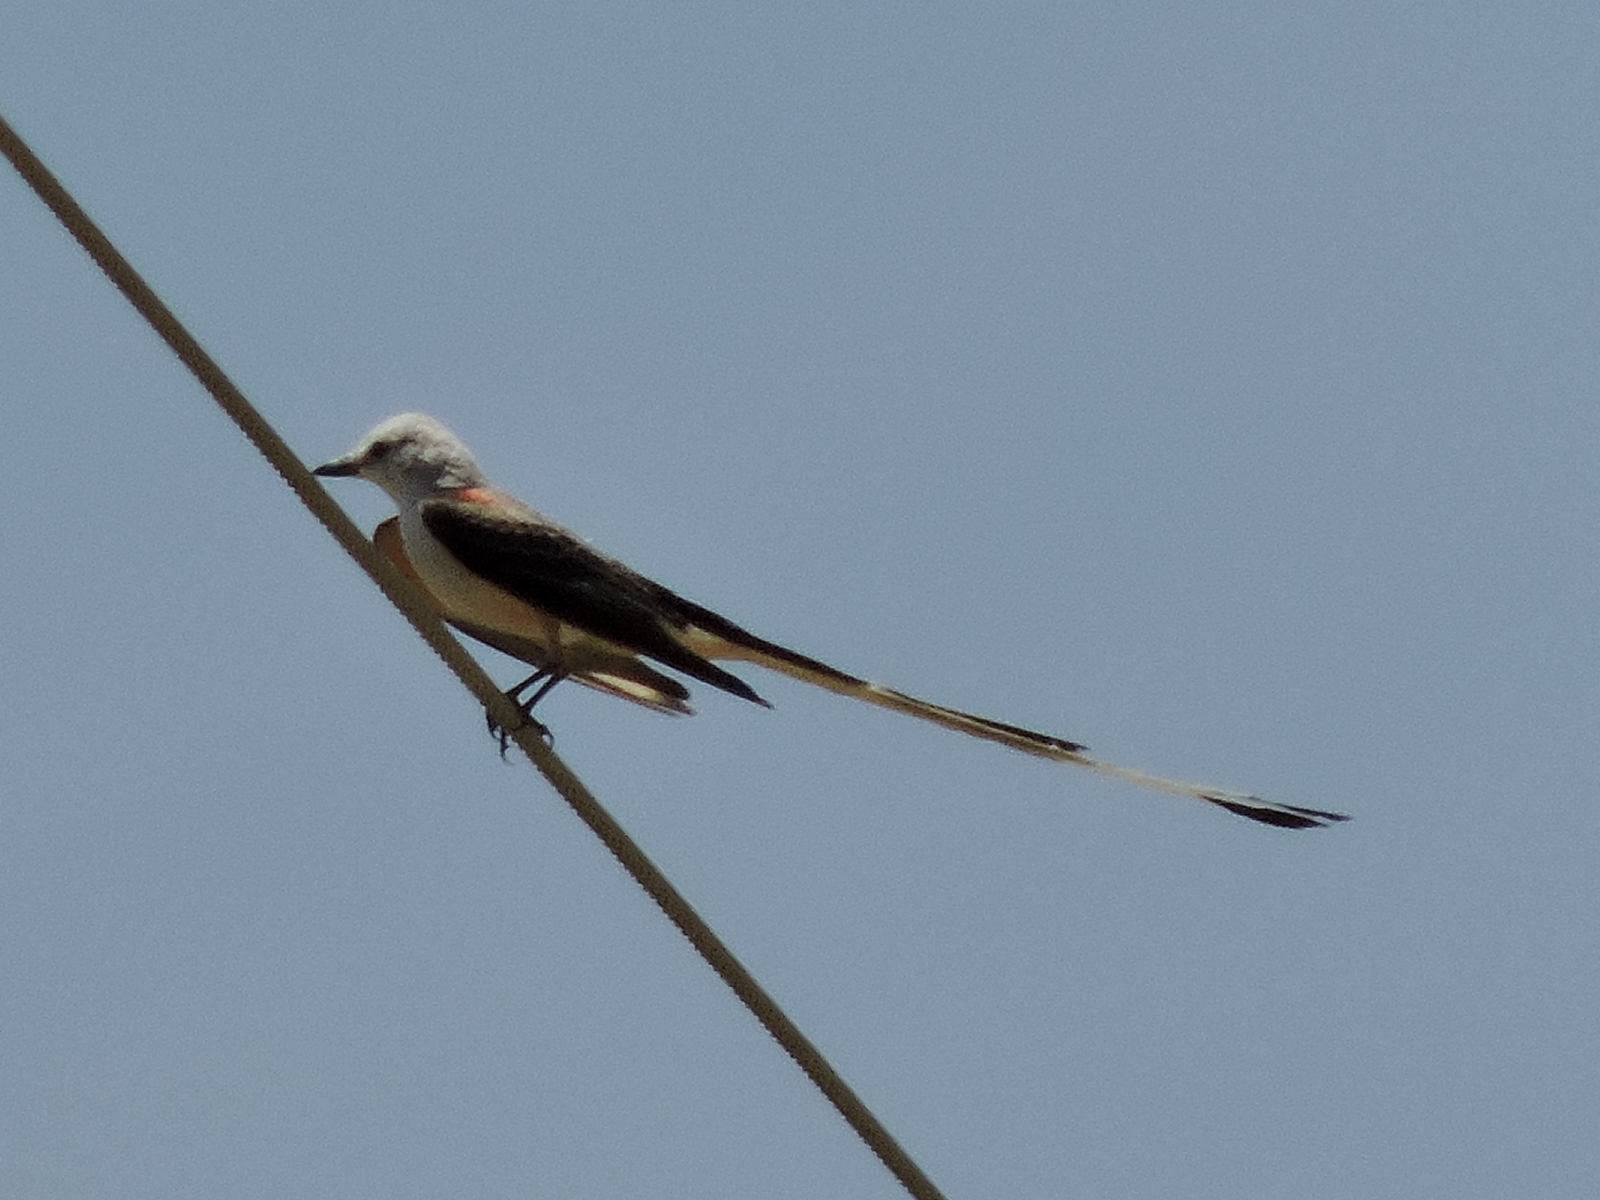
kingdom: Animalia
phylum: Chordata
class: Aves
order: Passeriformes
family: Tyrannidae
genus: Tyrannus
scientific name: Tyrannus forficatus
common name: Scissor-tailed flycatcher
